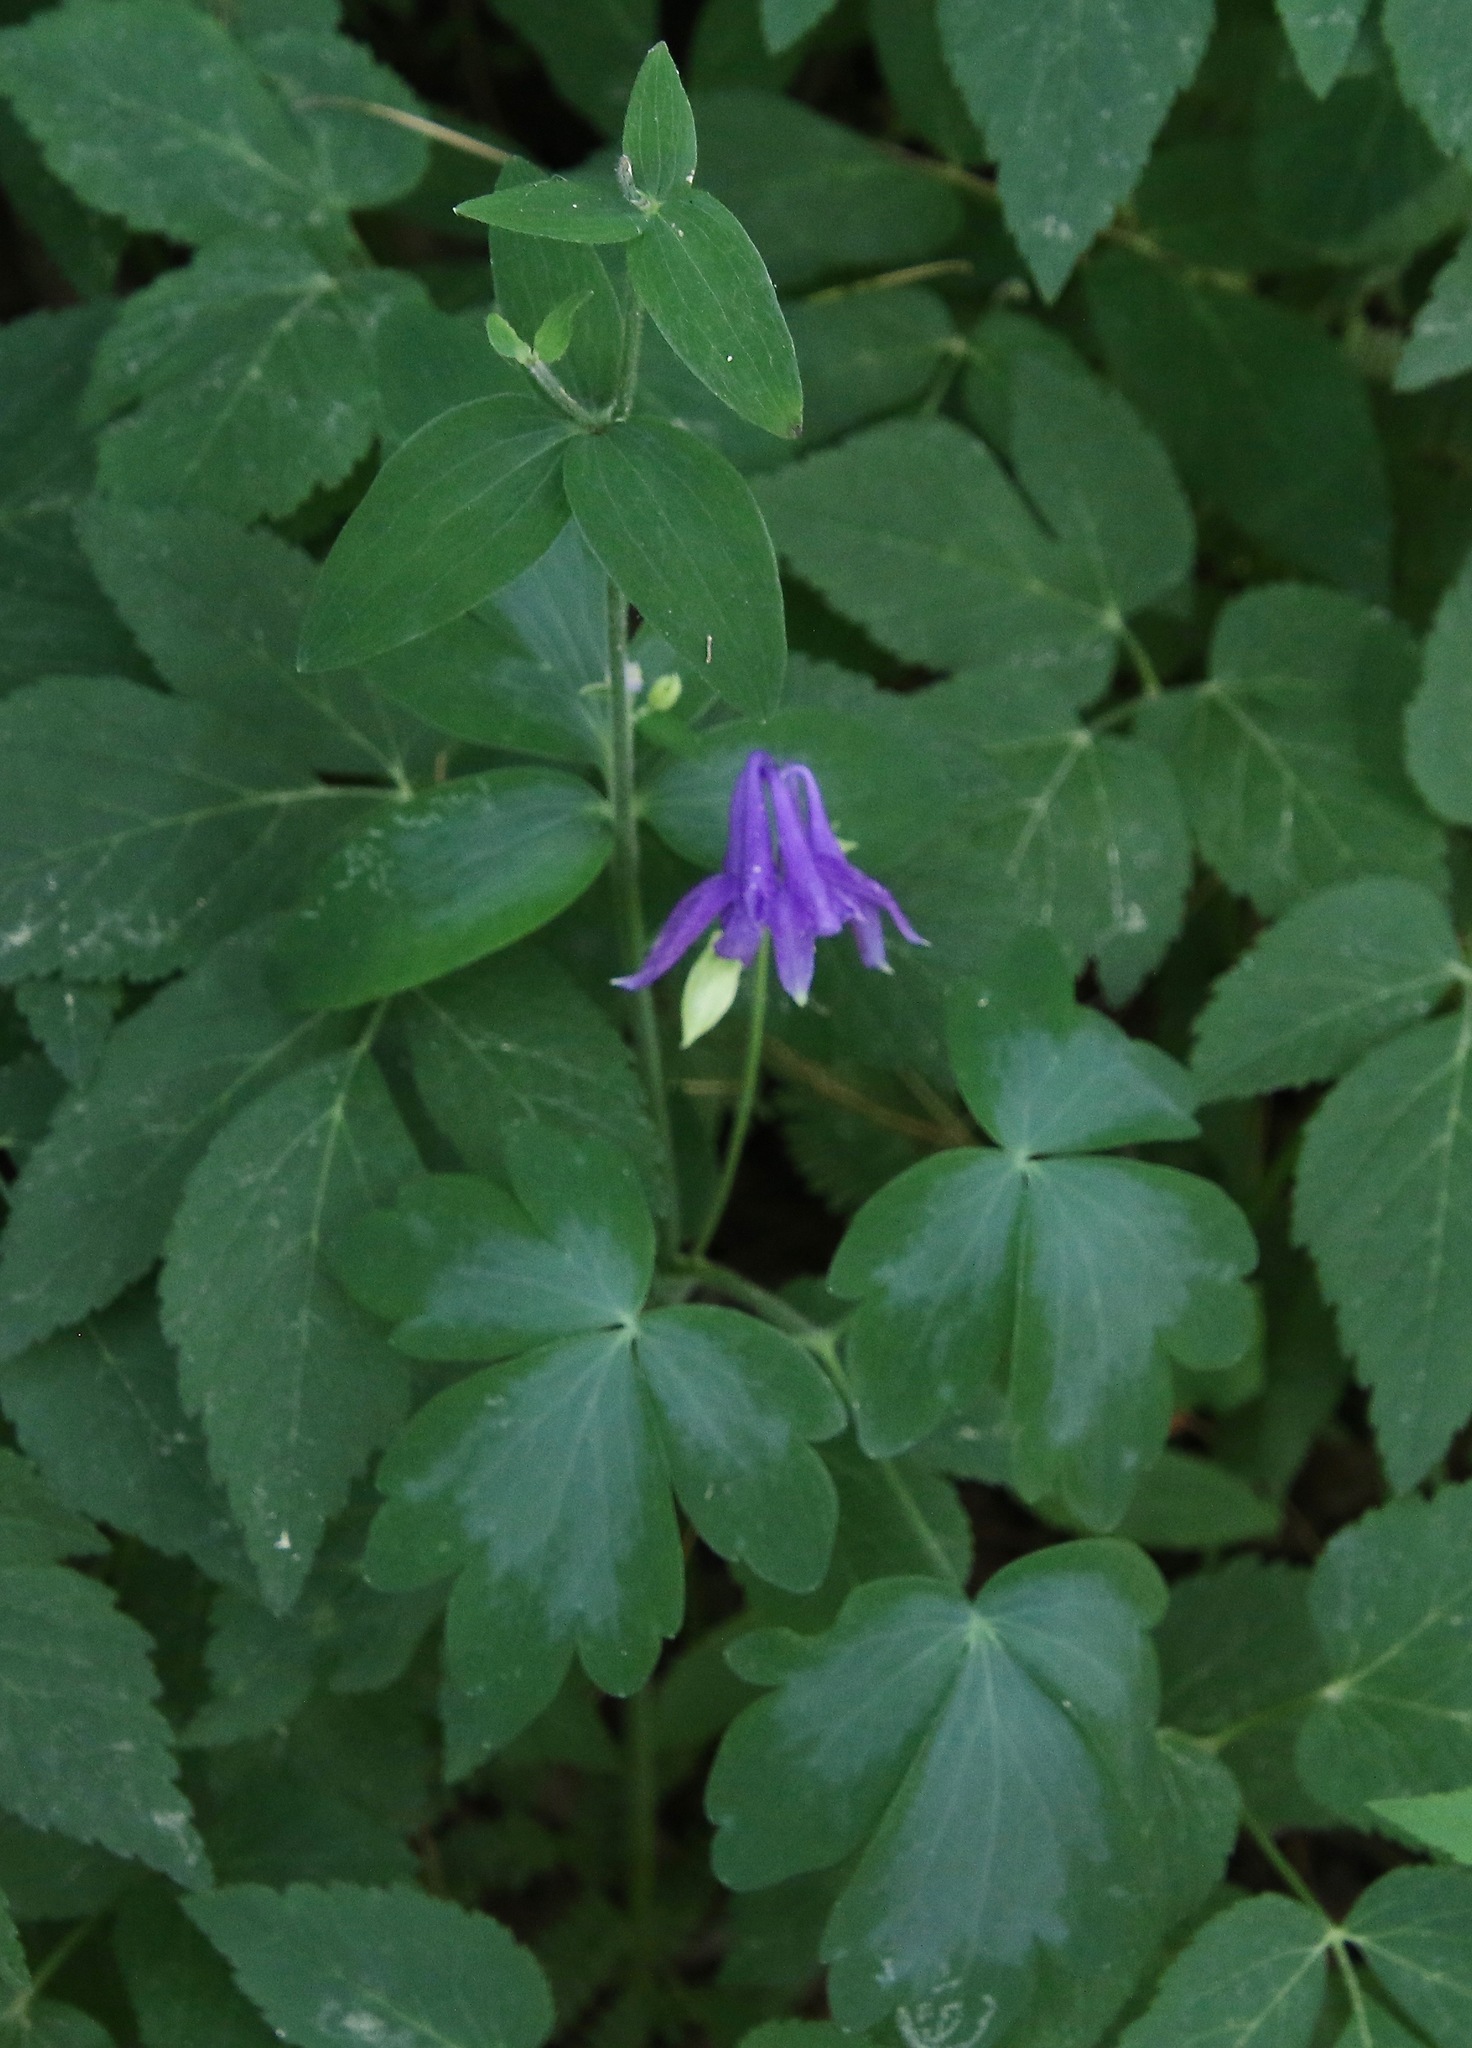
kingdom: Plantae
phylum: Tracheophyta
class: Magnoliopsida
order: Ranunculales
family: Ranunculaceae
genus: Aquilegia
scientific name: Aquilegia vulgaris
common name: Columbine
